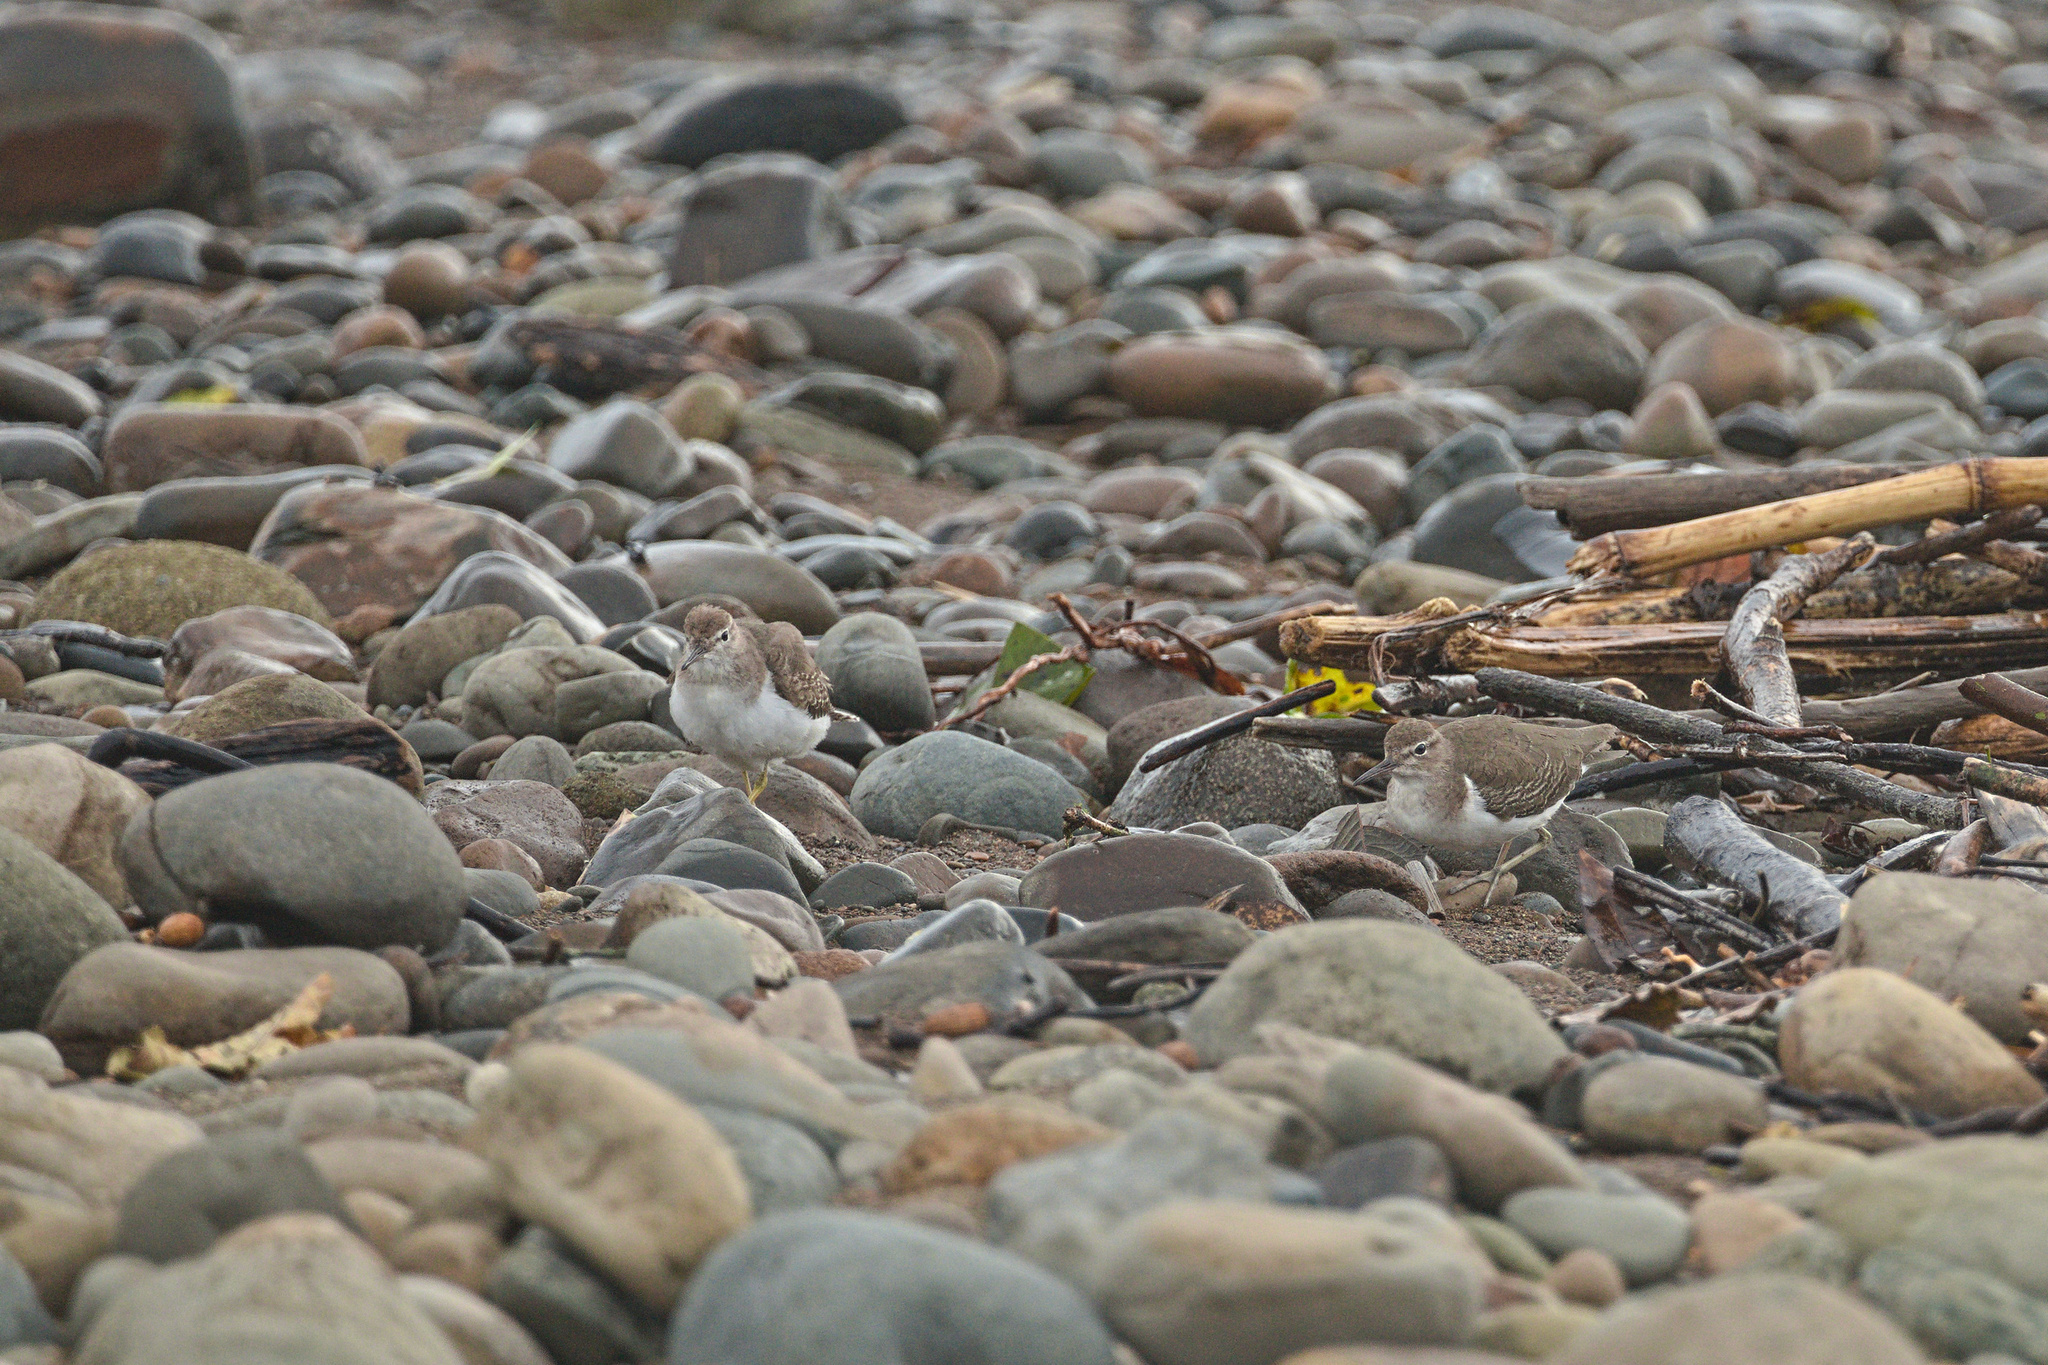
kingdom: Animalia
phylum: Chordata
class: Aves
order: Charadriiformes
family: Scolopacidae
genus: Actitis
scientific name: Actitis macularius
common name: Spotted sandpiper
